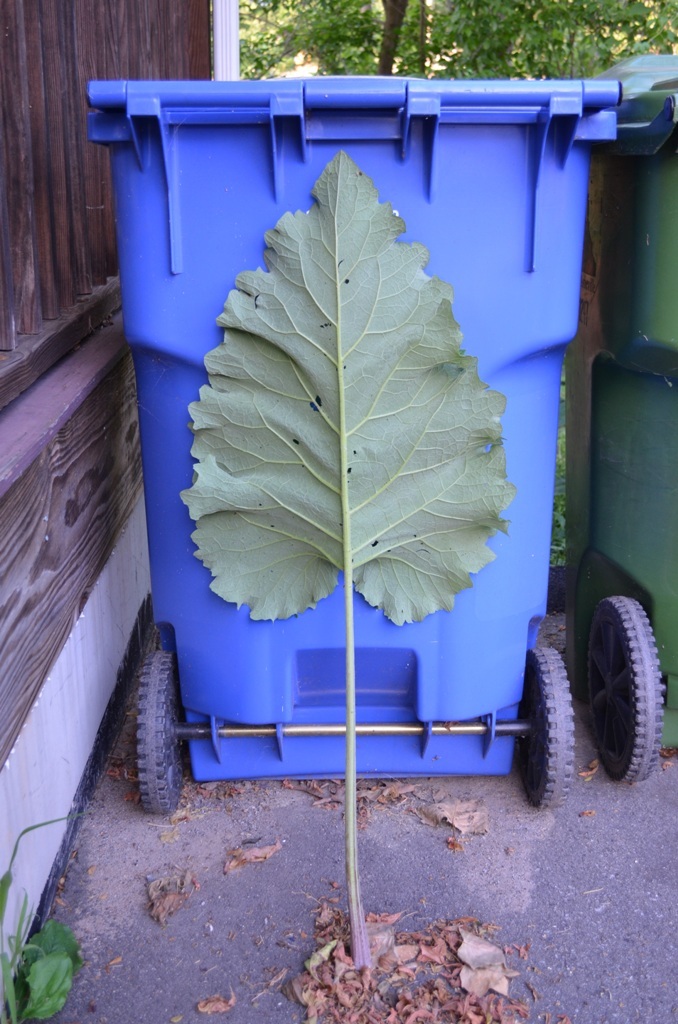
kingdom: Plantae
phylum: Tracheophyta
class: Magnoliopsida
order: Asterales
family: Asteraceae
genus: Arctium
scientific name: Arctium minus
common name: Lesser burdock
